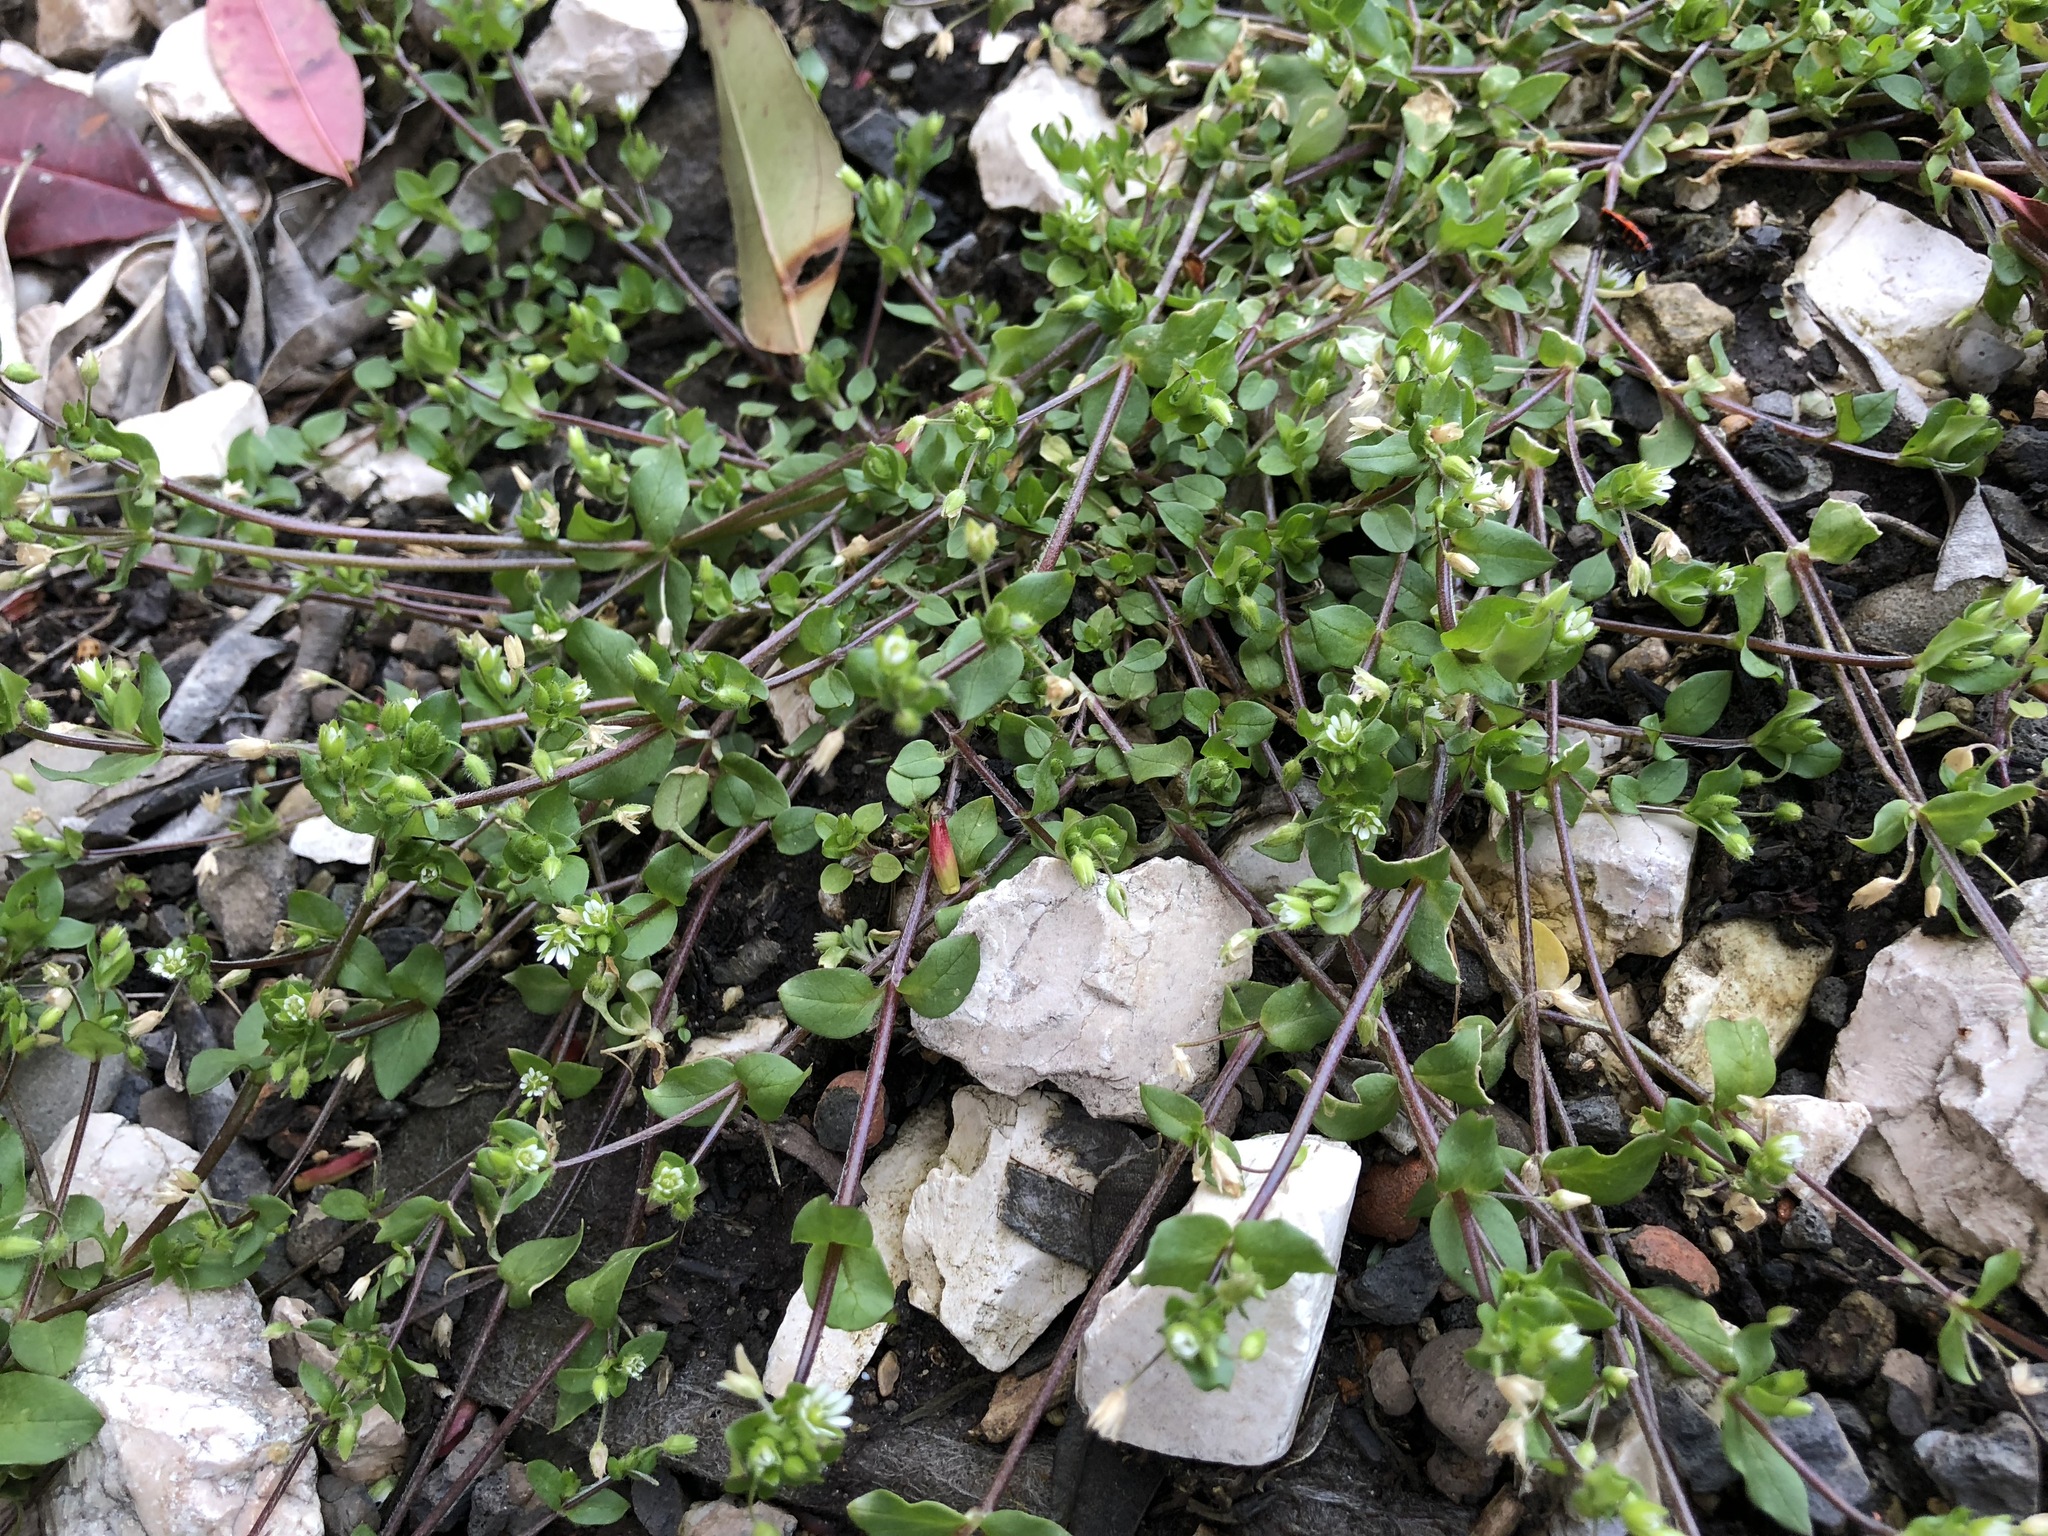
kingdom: Plantae
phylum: Tracheophyta
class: Magnoliopsida
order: Caryophyllales
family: Caryophyllaceae
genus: Stellaria
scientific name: Stellaria media
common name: Common chickweed
